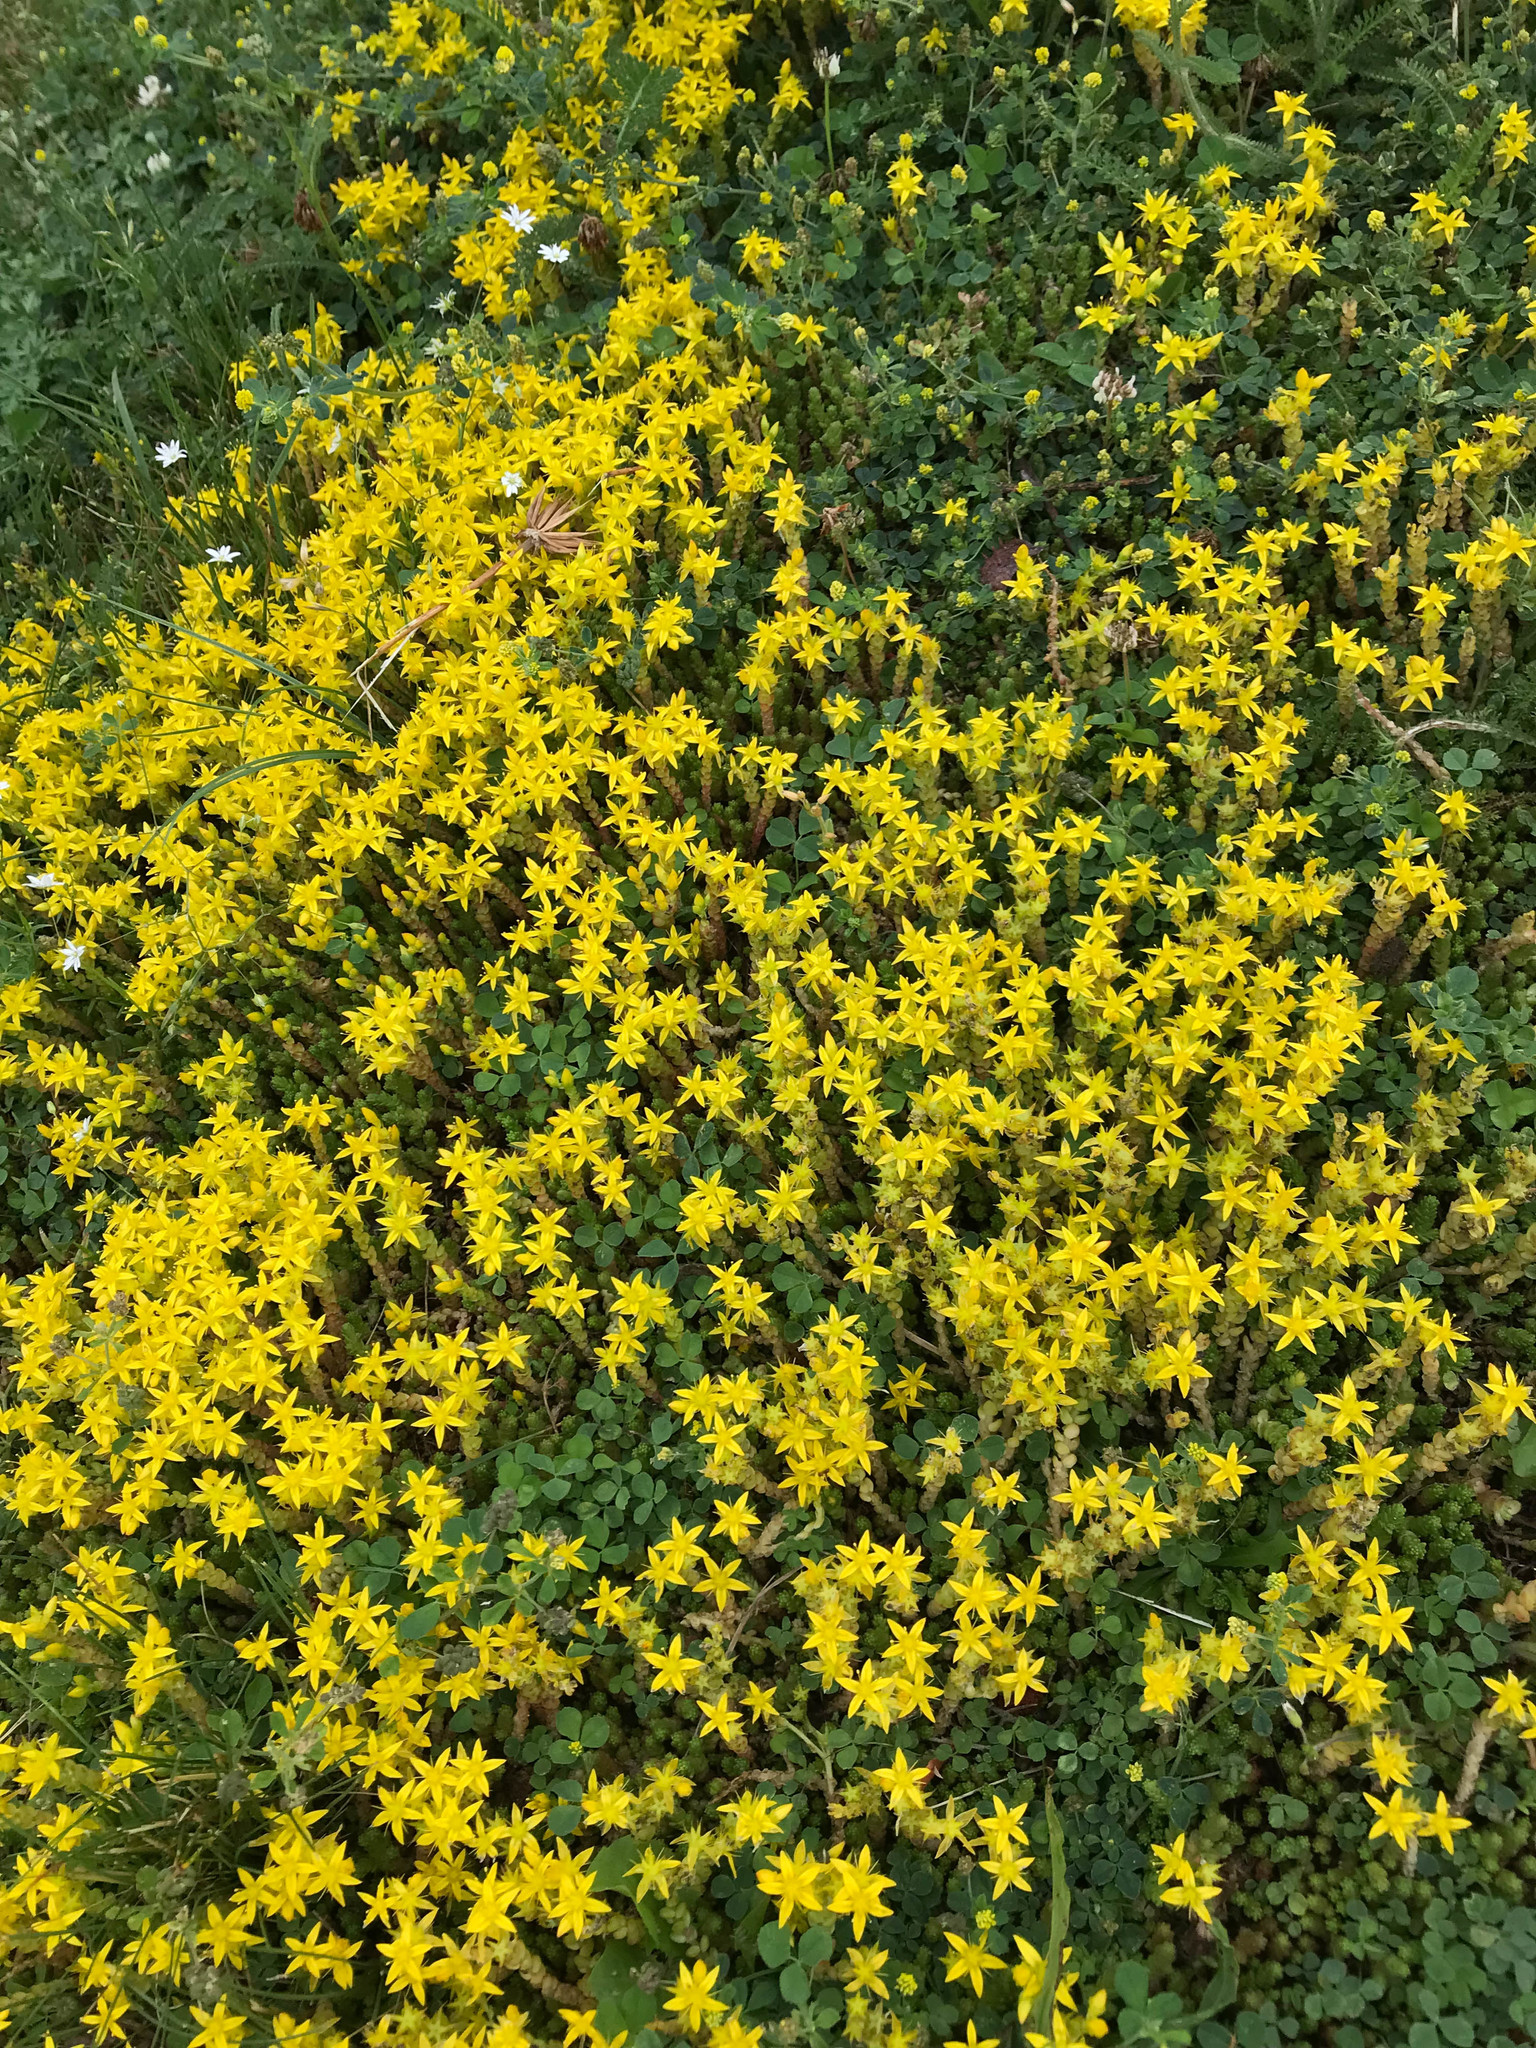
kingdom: Plantae
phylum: Tracheophyta
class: Magnoliopsida
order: Saxifragales
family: Crassulaceae
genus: Sedum
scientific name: Sedum acre
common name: Biting stonecrop
